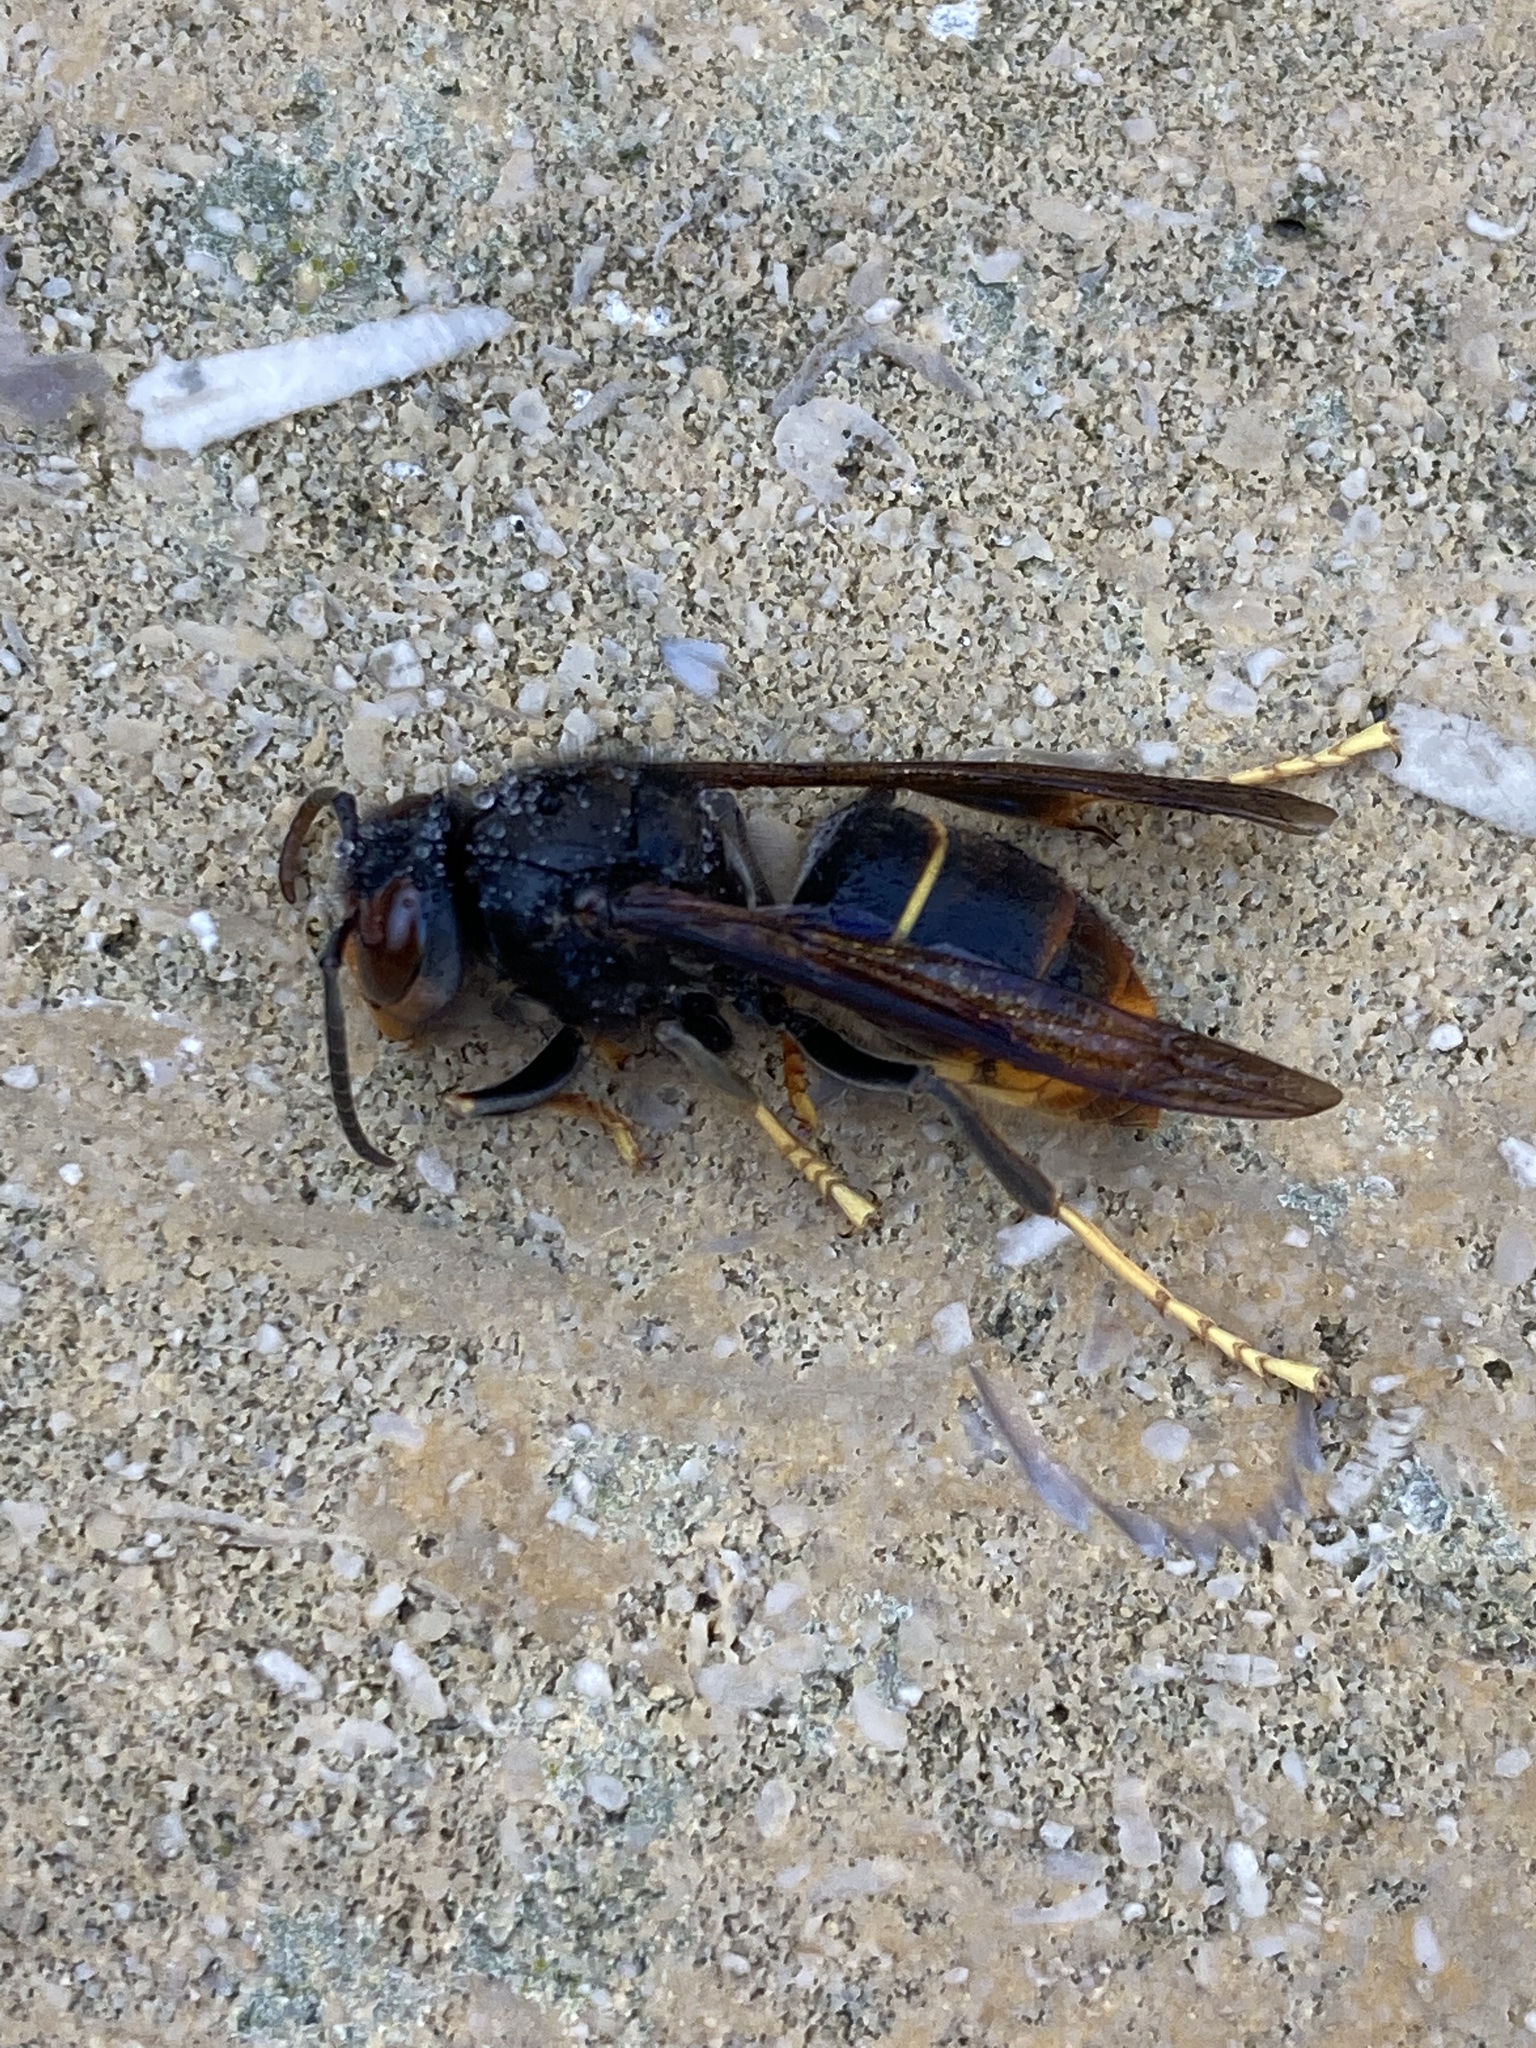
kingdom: Animalia
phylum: Arthropoda
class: Insecta
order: Hymenoptera
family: Vespidae
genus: Vespa
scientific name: Vespa velutina
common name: Asian hornet
